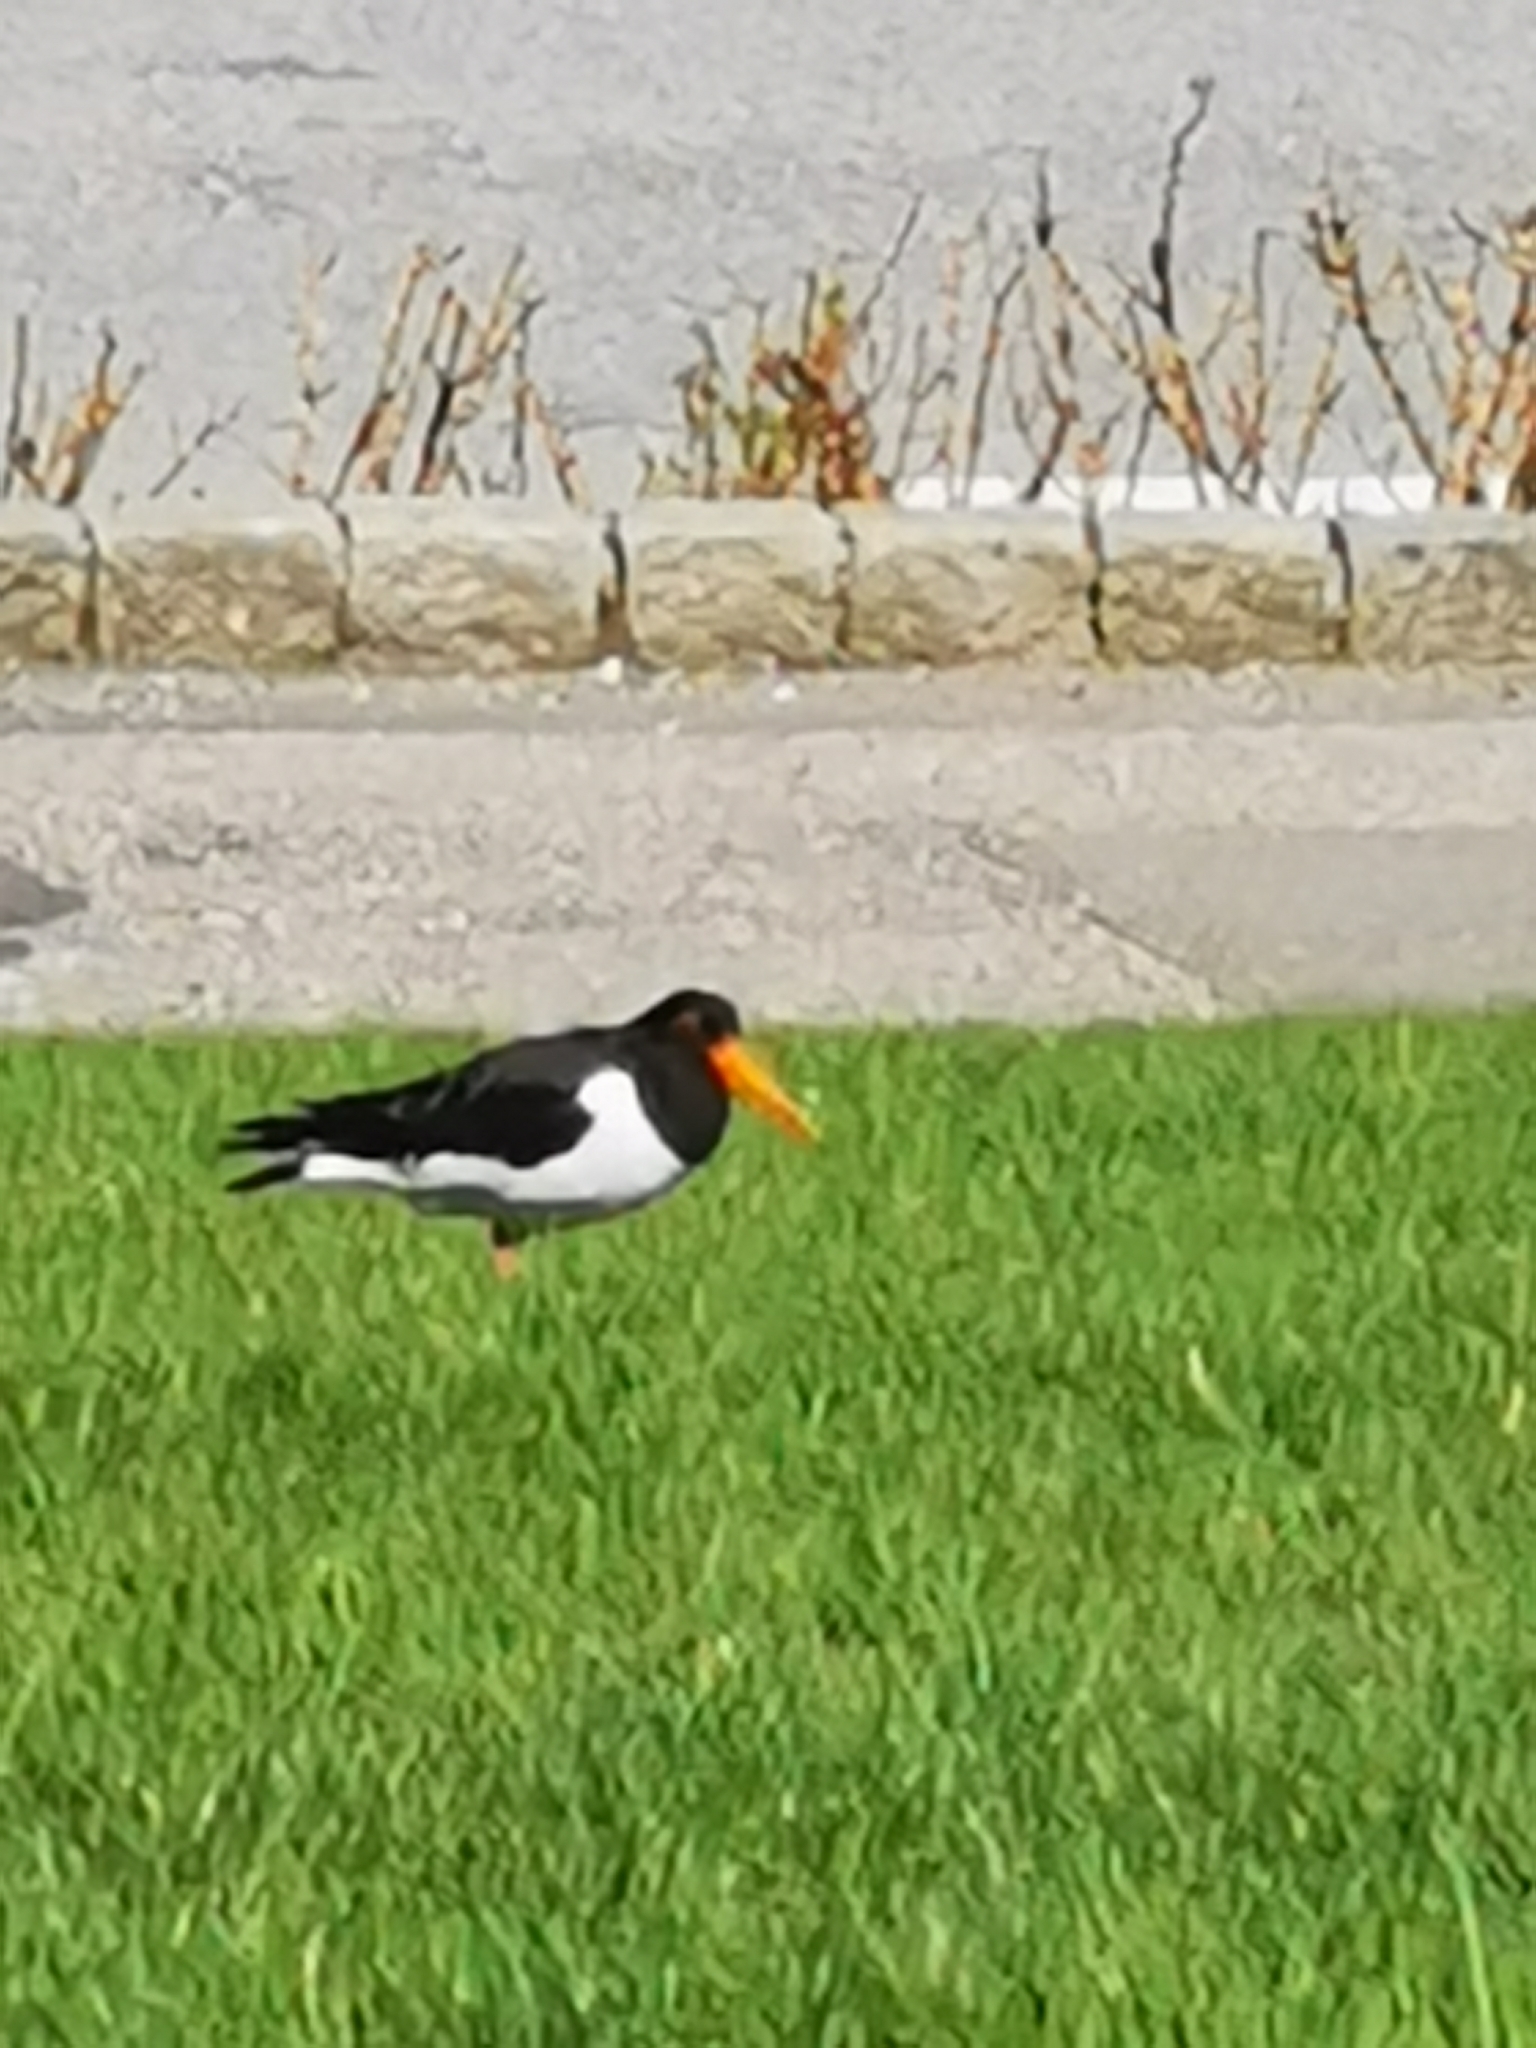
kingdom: Animalia
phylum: Chordata
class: Aves
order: Charadriiformes
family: Haematopodidae
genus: Haematopus
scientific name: Haematopus ostralegus
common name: Eurasian oystercatcher
